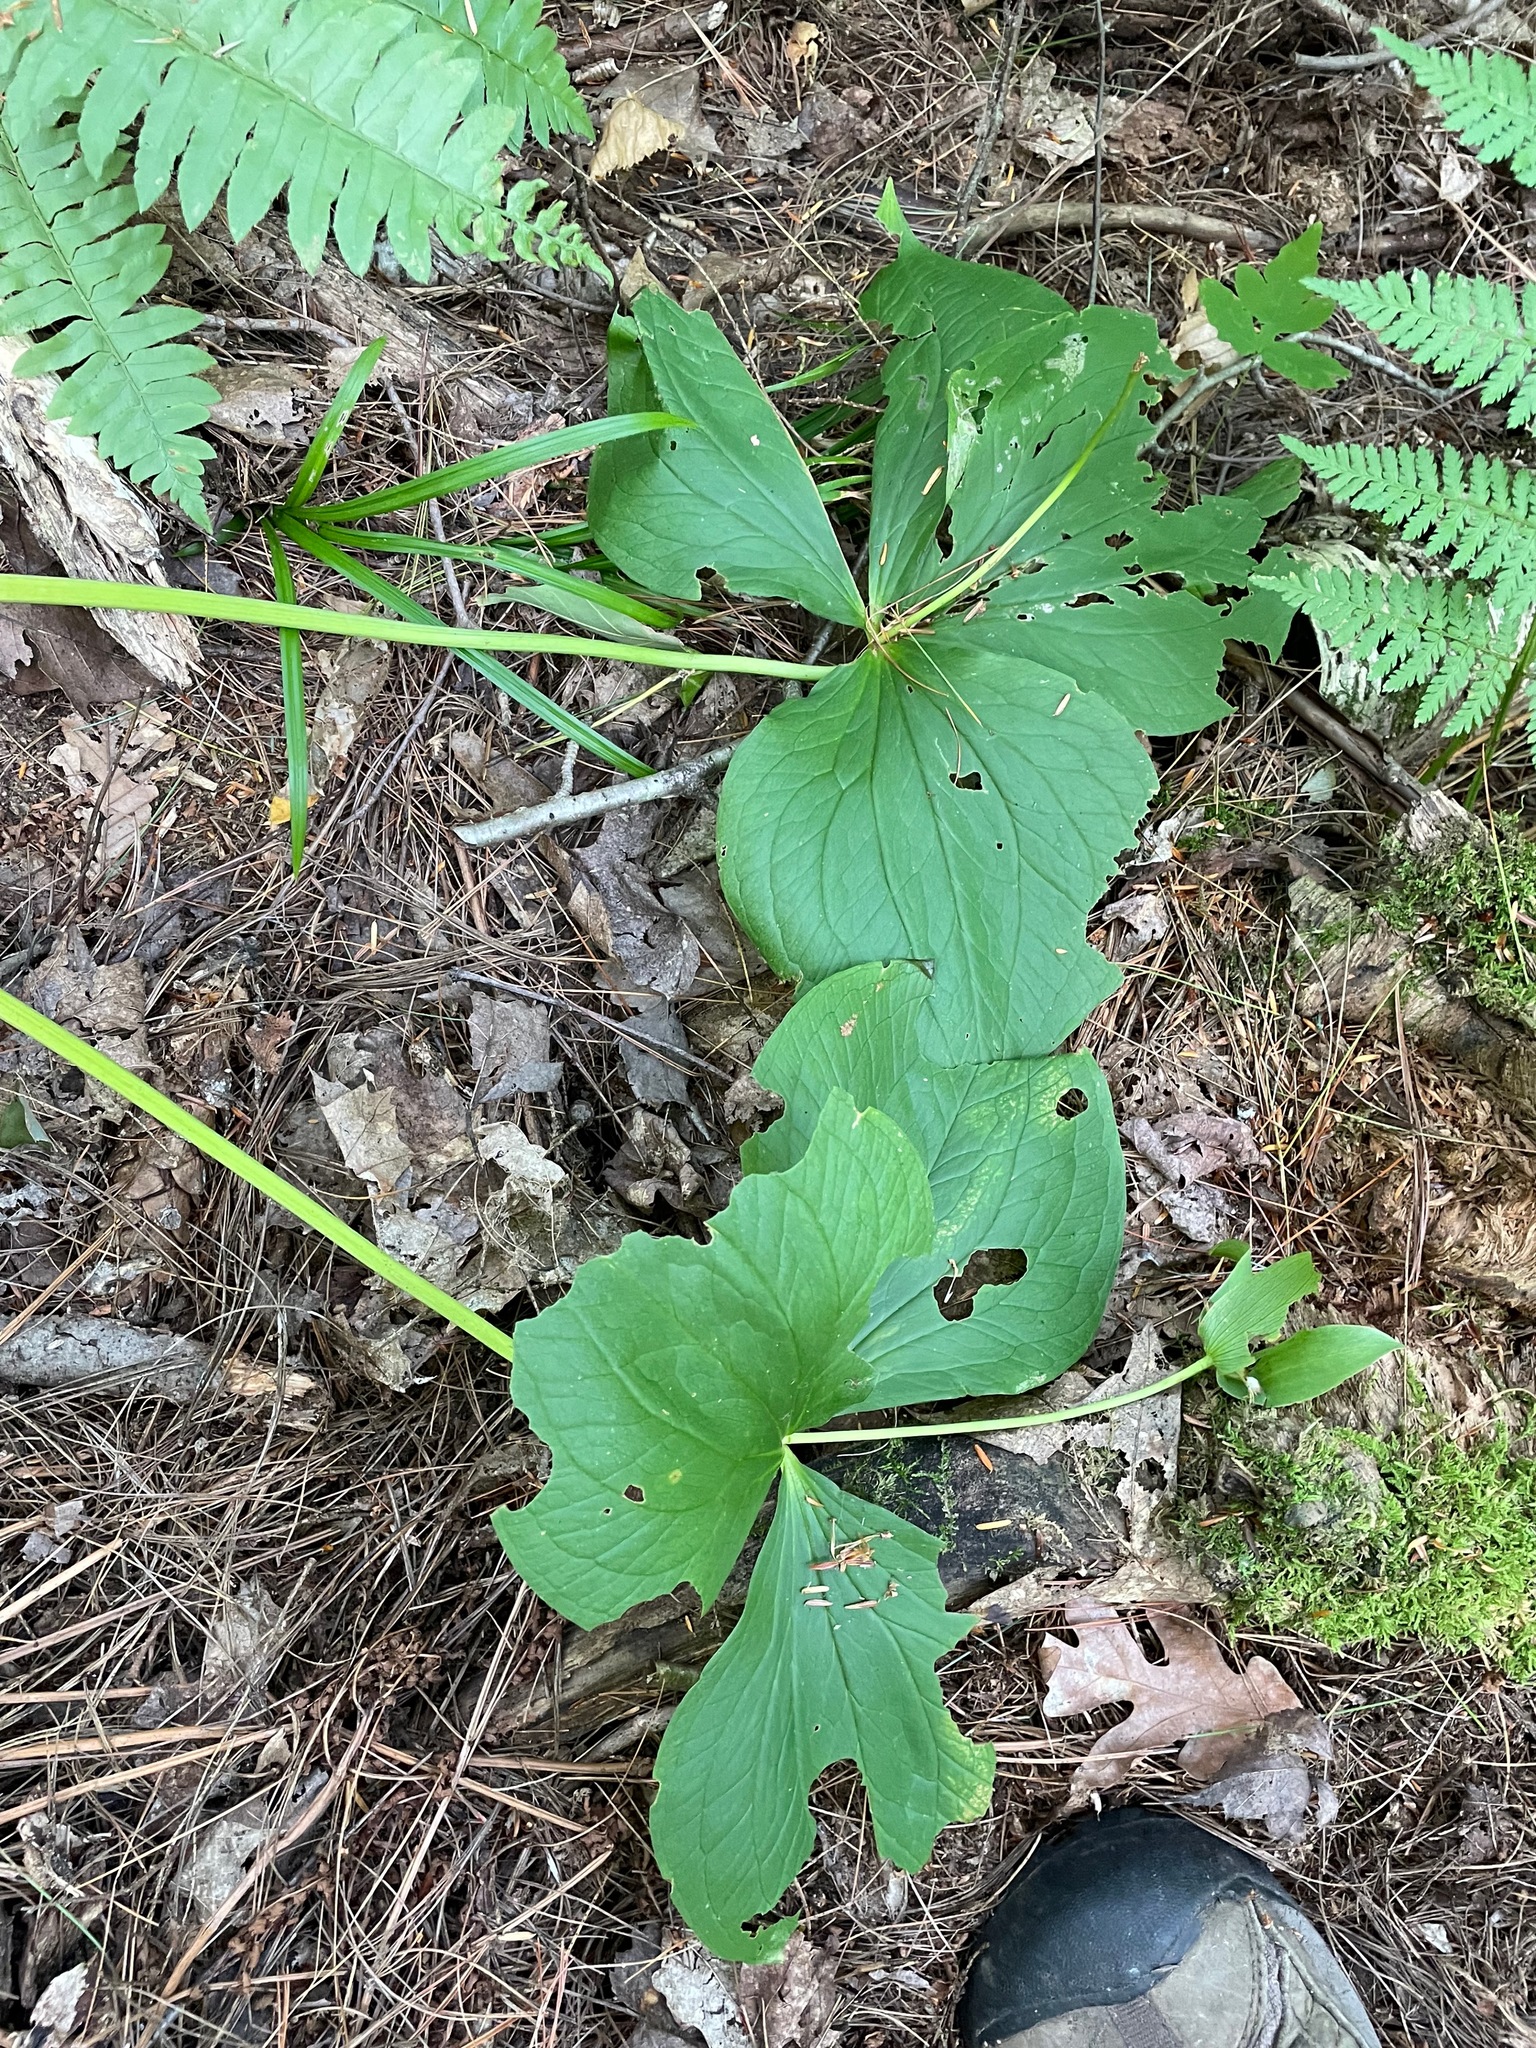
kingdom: Plantae
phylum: Tracheophyta
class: Liliopsida
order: Liliales
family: Melanthiaceae
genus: Trillium
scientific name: Trillium grandiflorum
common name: Great white trillium
